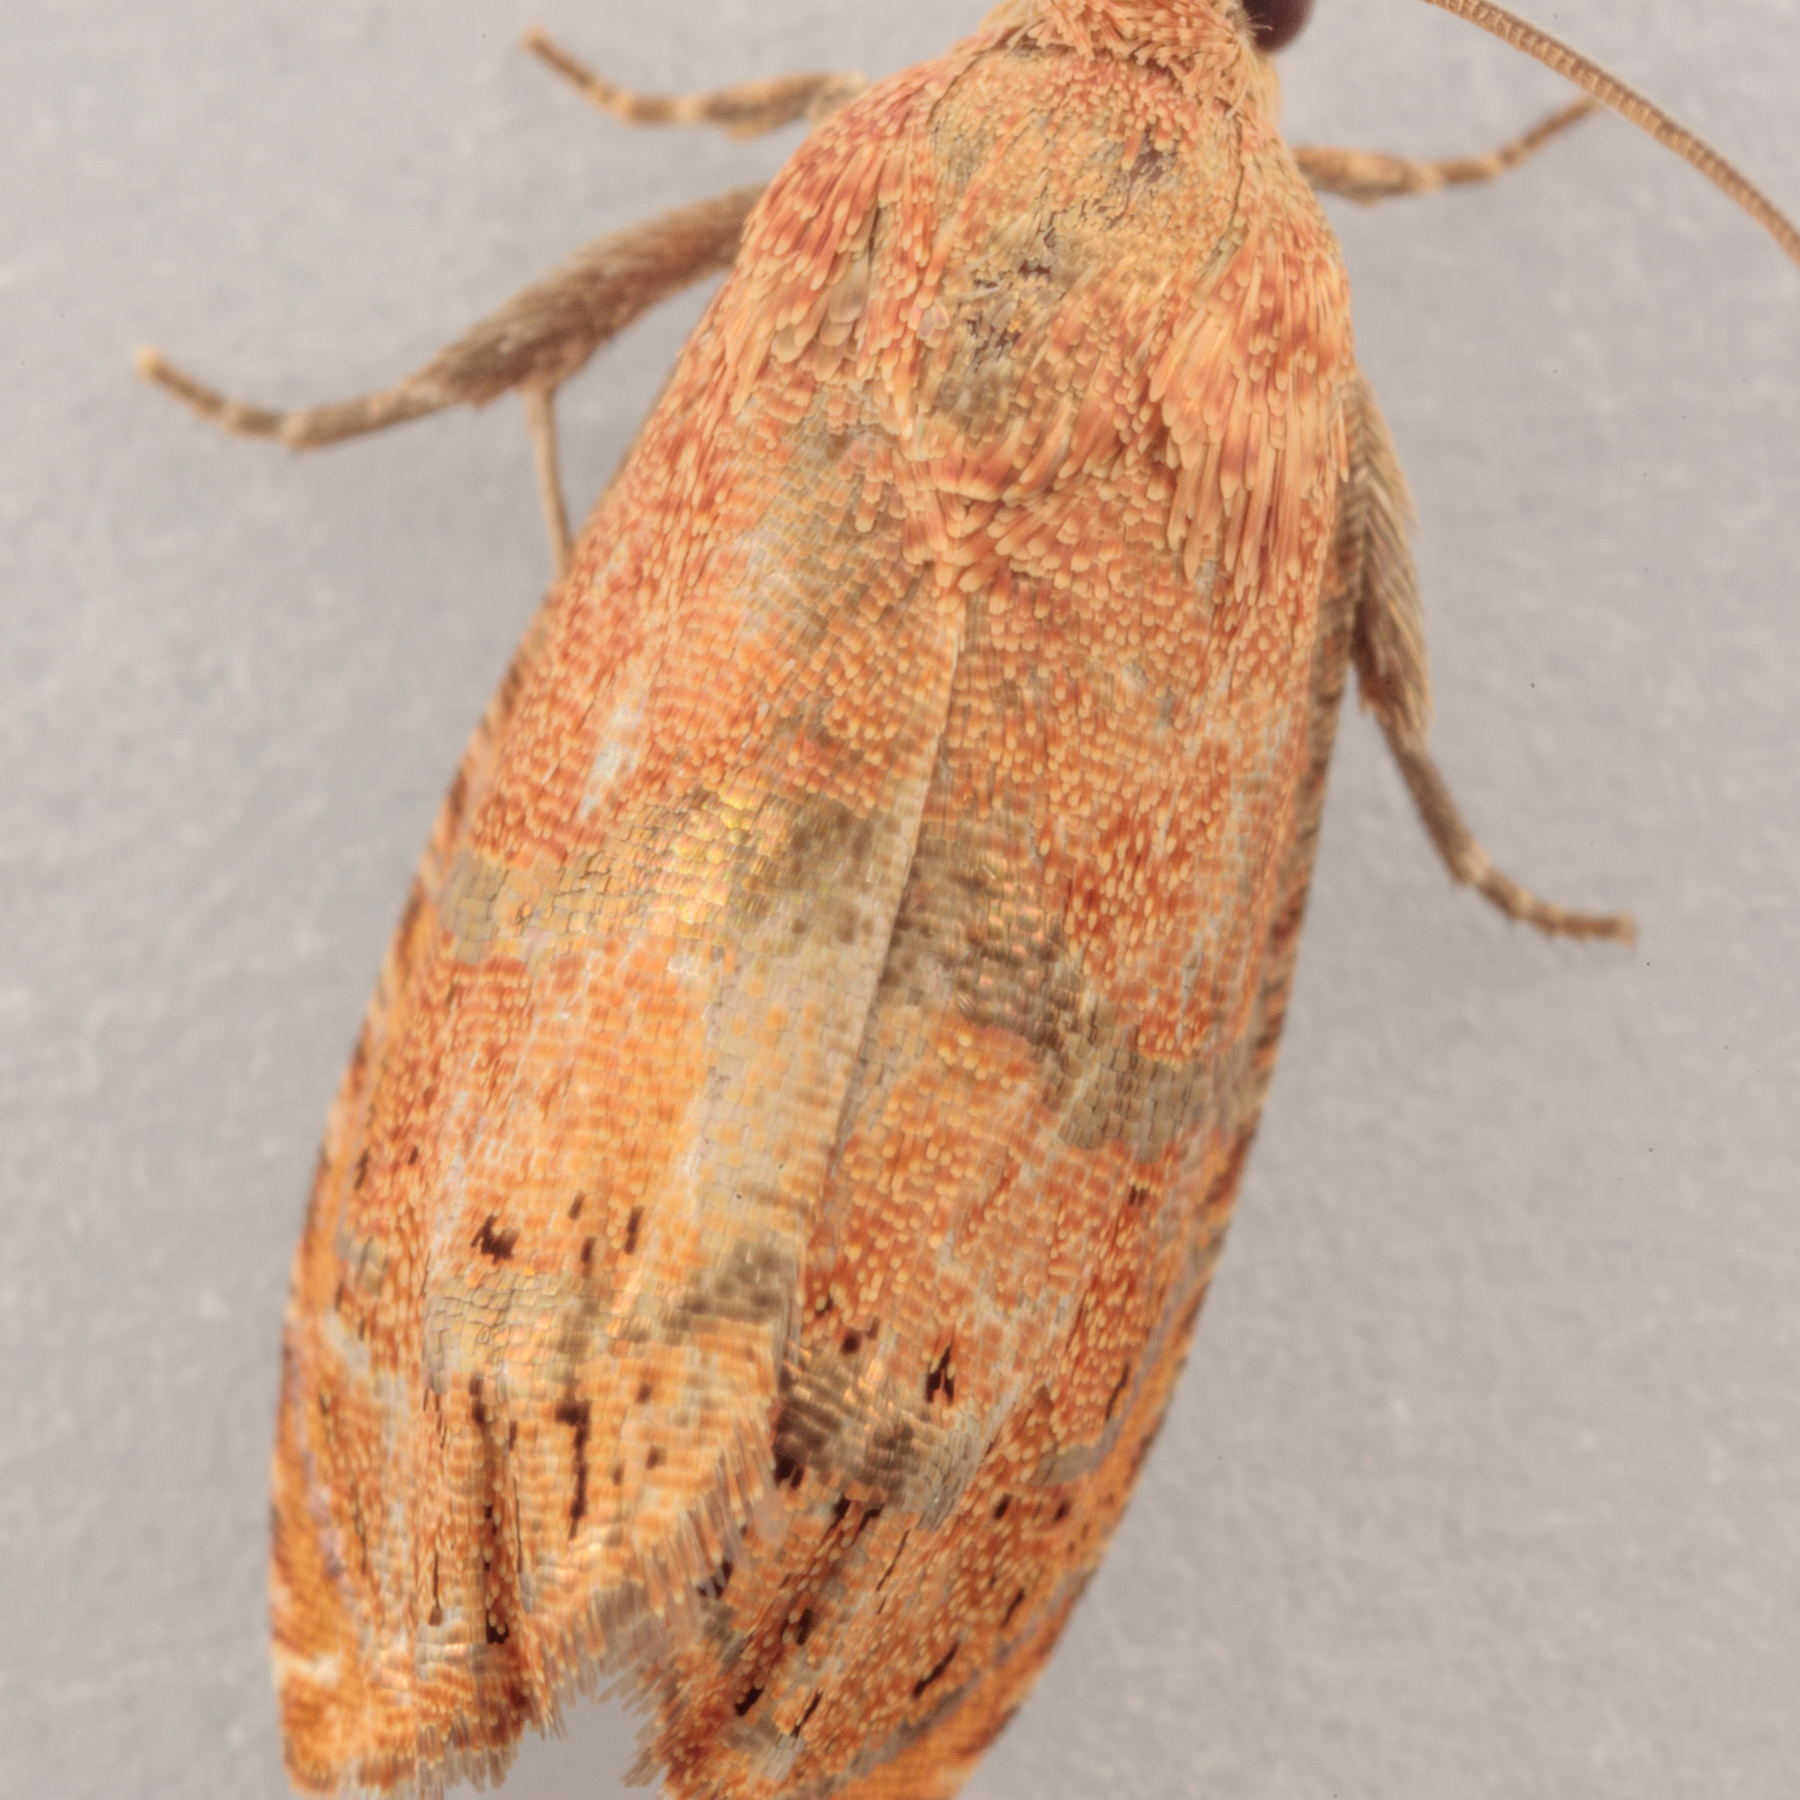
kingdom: Animalia
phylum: Arthropoda
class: Insecta
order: Lepidoptera
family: Tortricidae
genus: Cydia
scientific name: Cydia latiferreana
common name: Filbertworm moth
